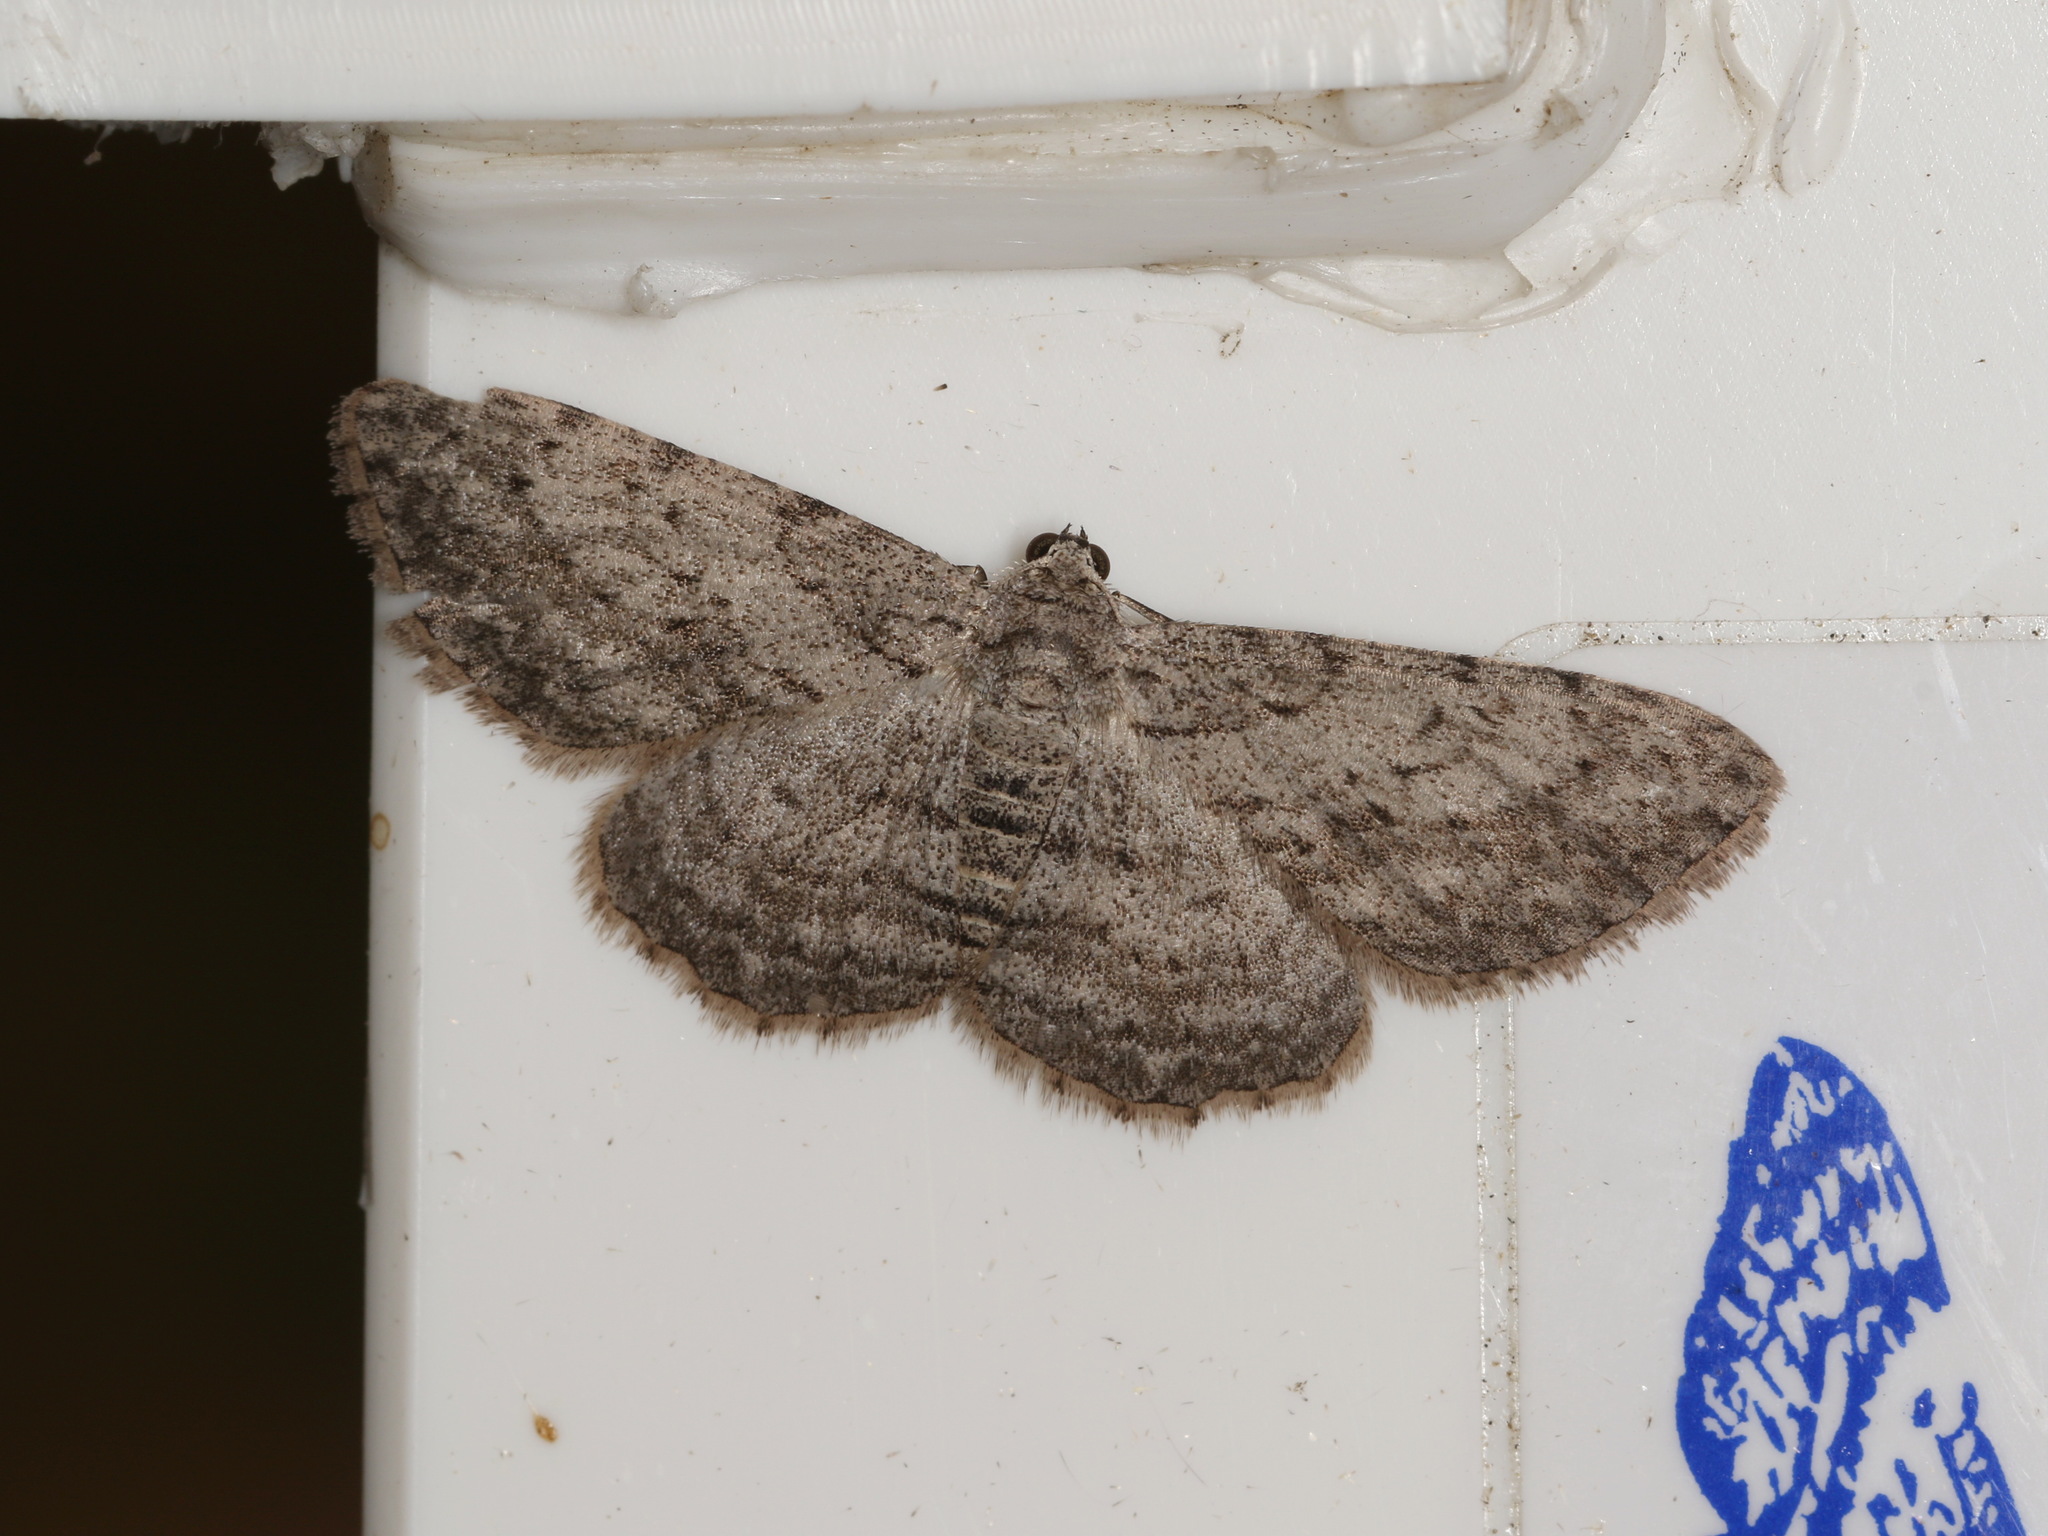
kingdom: Animalia
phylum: Arthropoda
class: Insecta
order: Lepidoptera
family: Geometridae
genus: Phelotis
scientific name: Phelotis cognata
